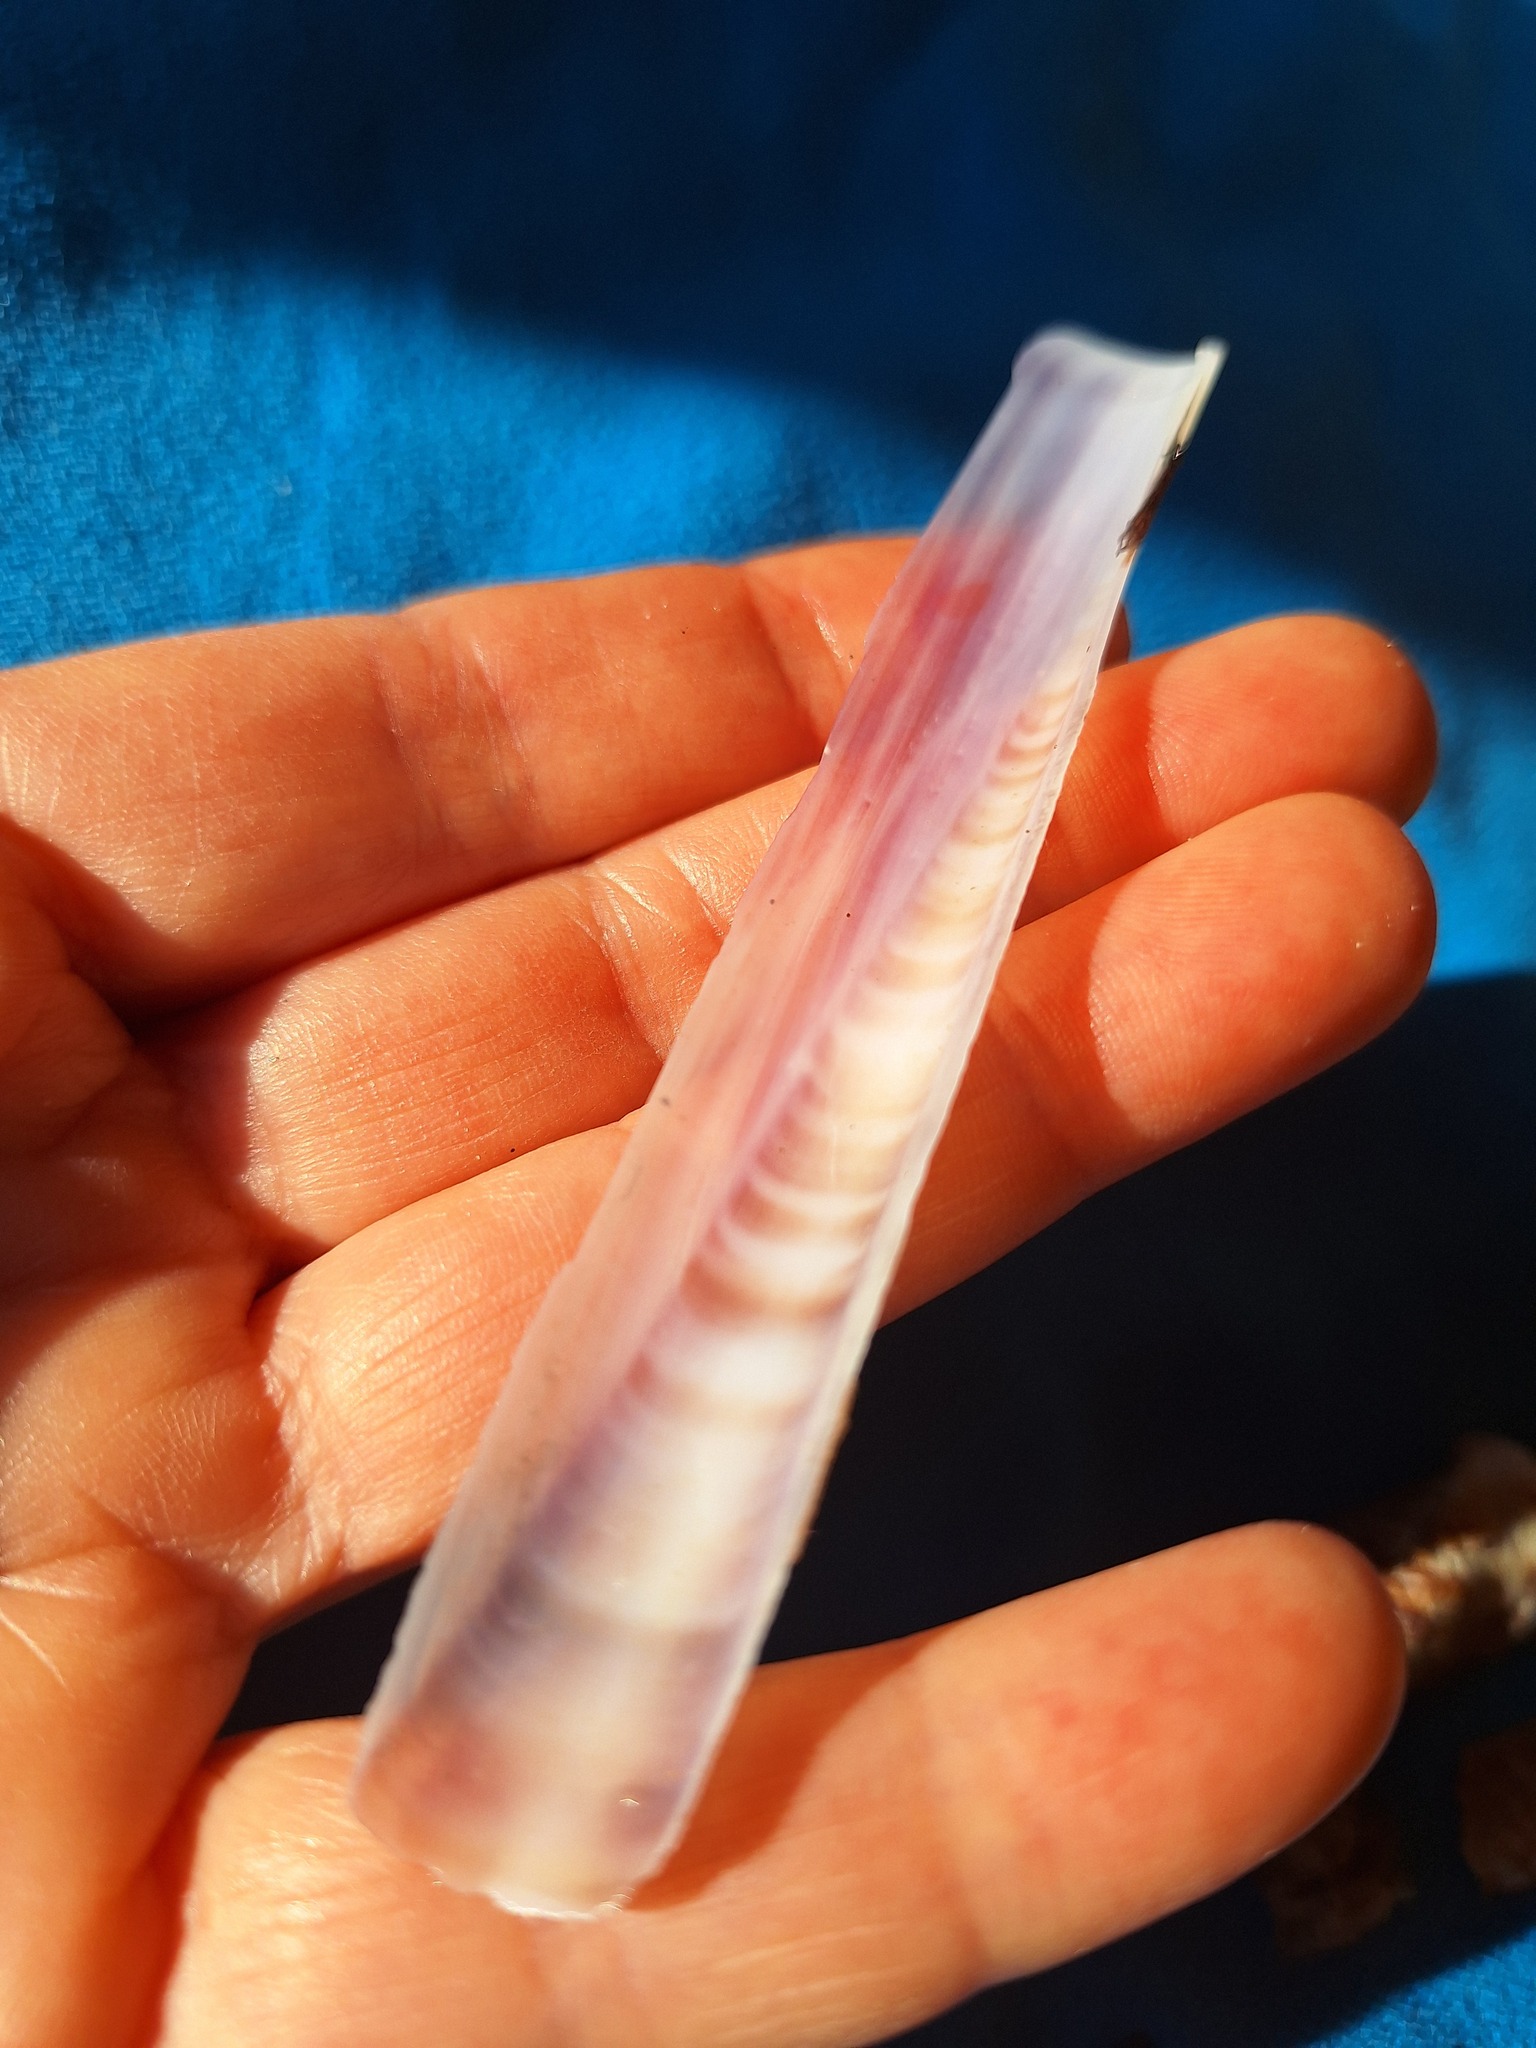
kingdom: Animalia
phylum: Mollusca
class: Bivalvia
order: Adapedonta
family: Pharidae
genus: Ensis
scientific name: Ensis minor
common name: Minor jackknife clam
